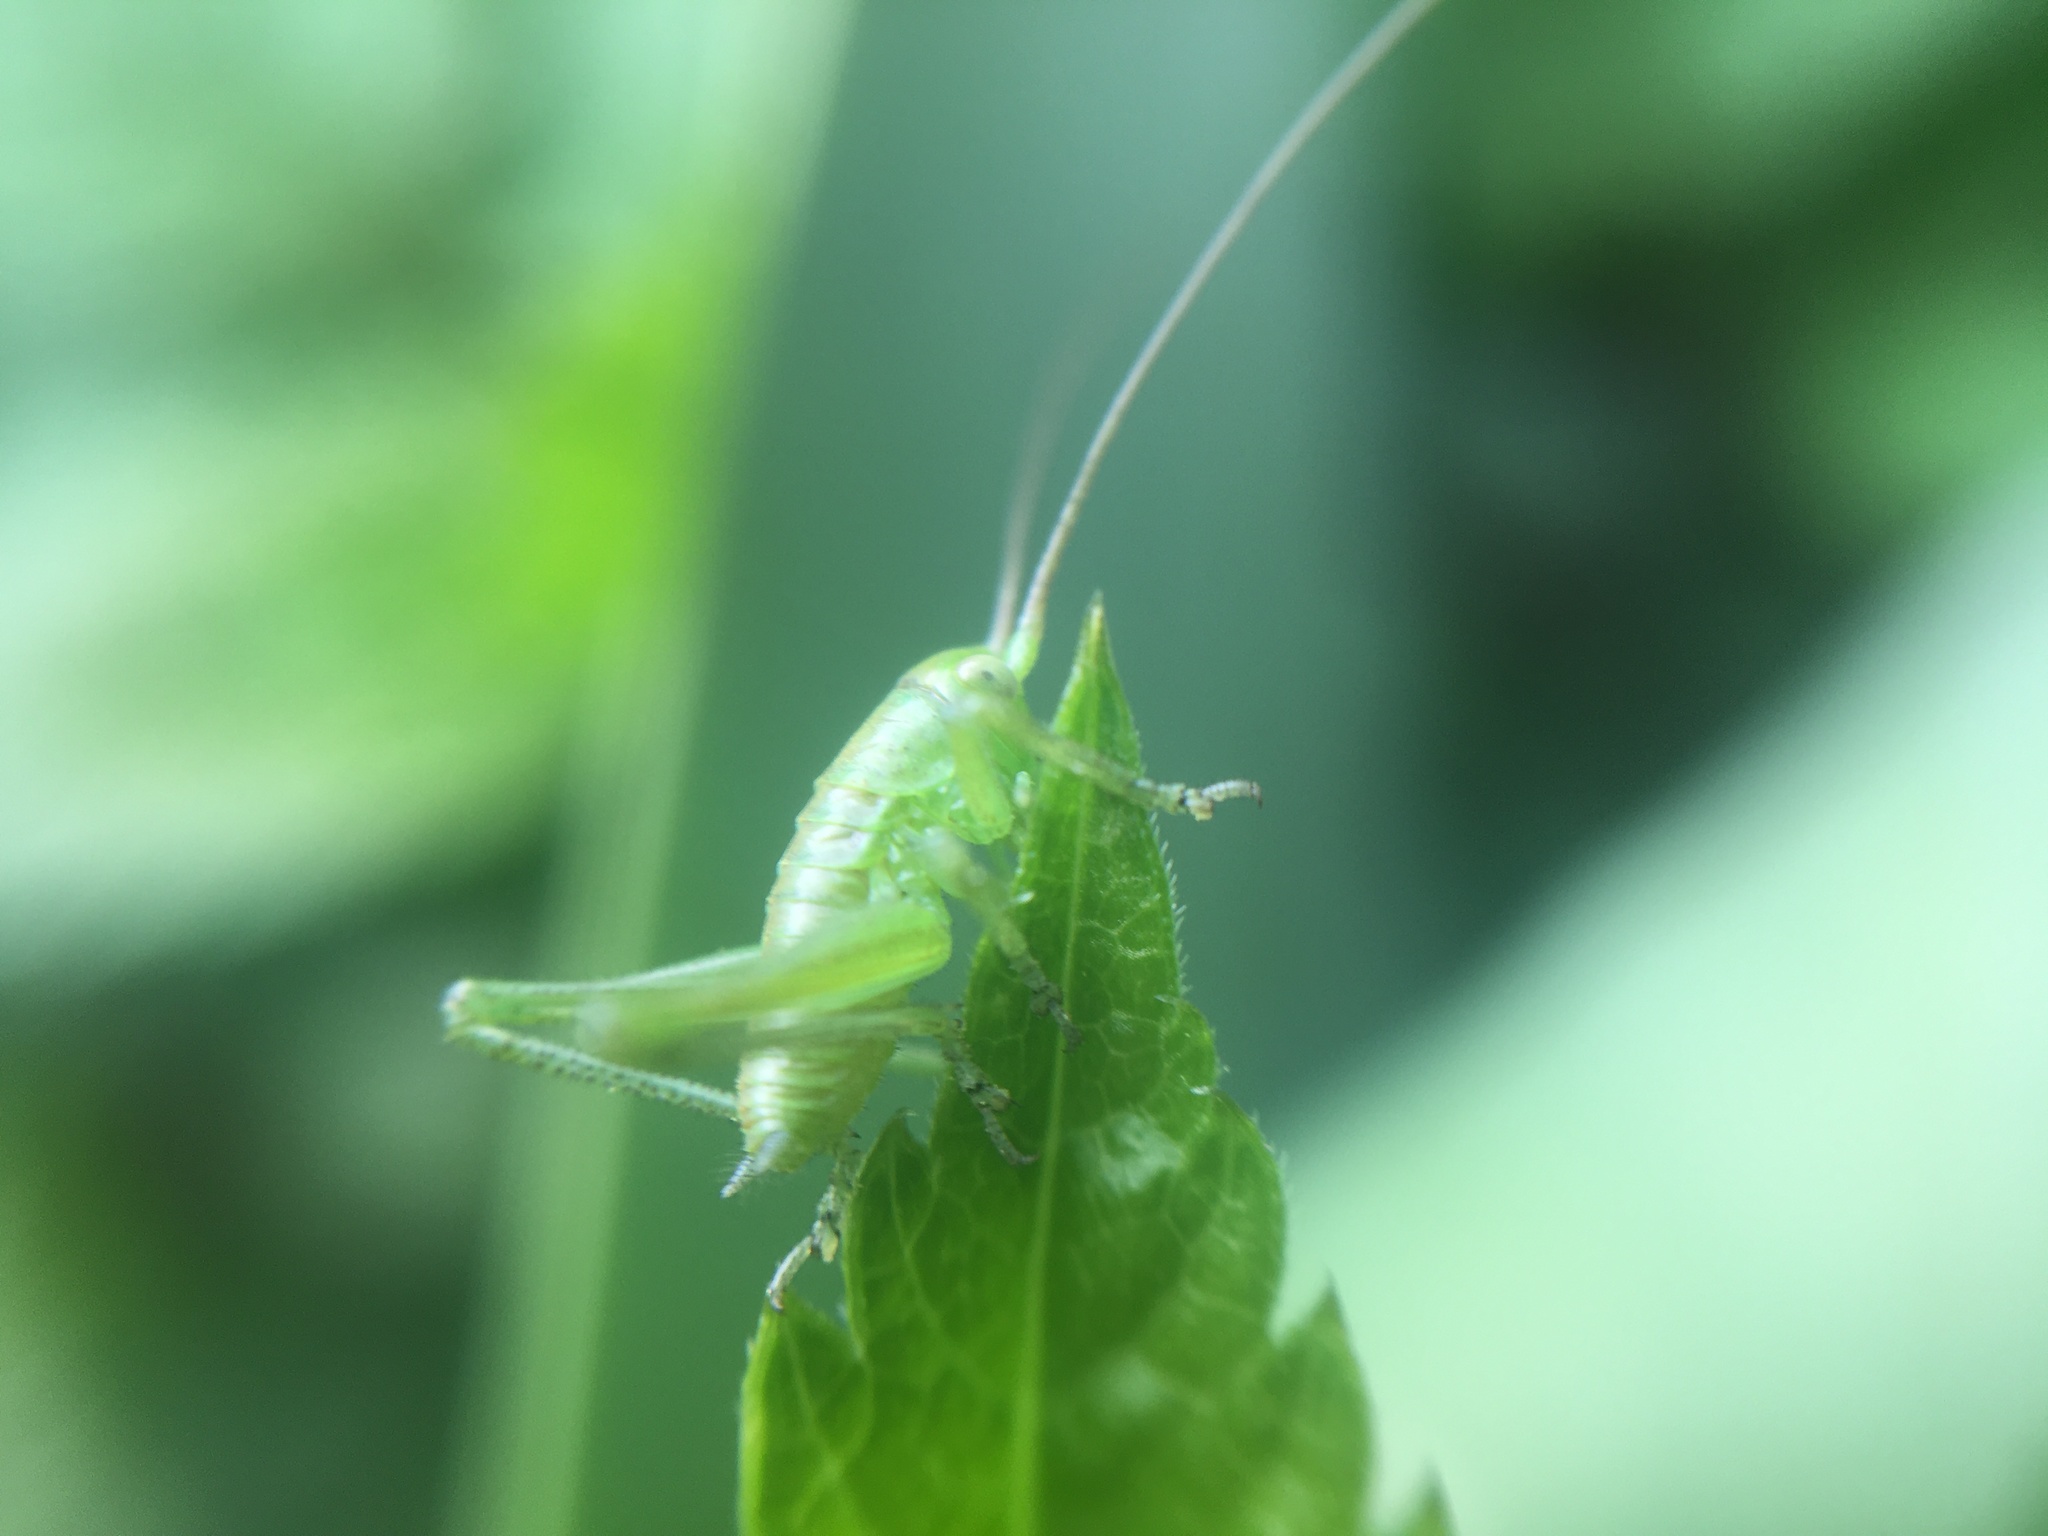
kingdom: Animalia
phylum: Arthropoda
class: Insecta
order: Orthoptera
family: Tettigoniidae
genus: Tettigonia
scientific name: Tettigonia cantans
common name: Upland green bush-cricket
